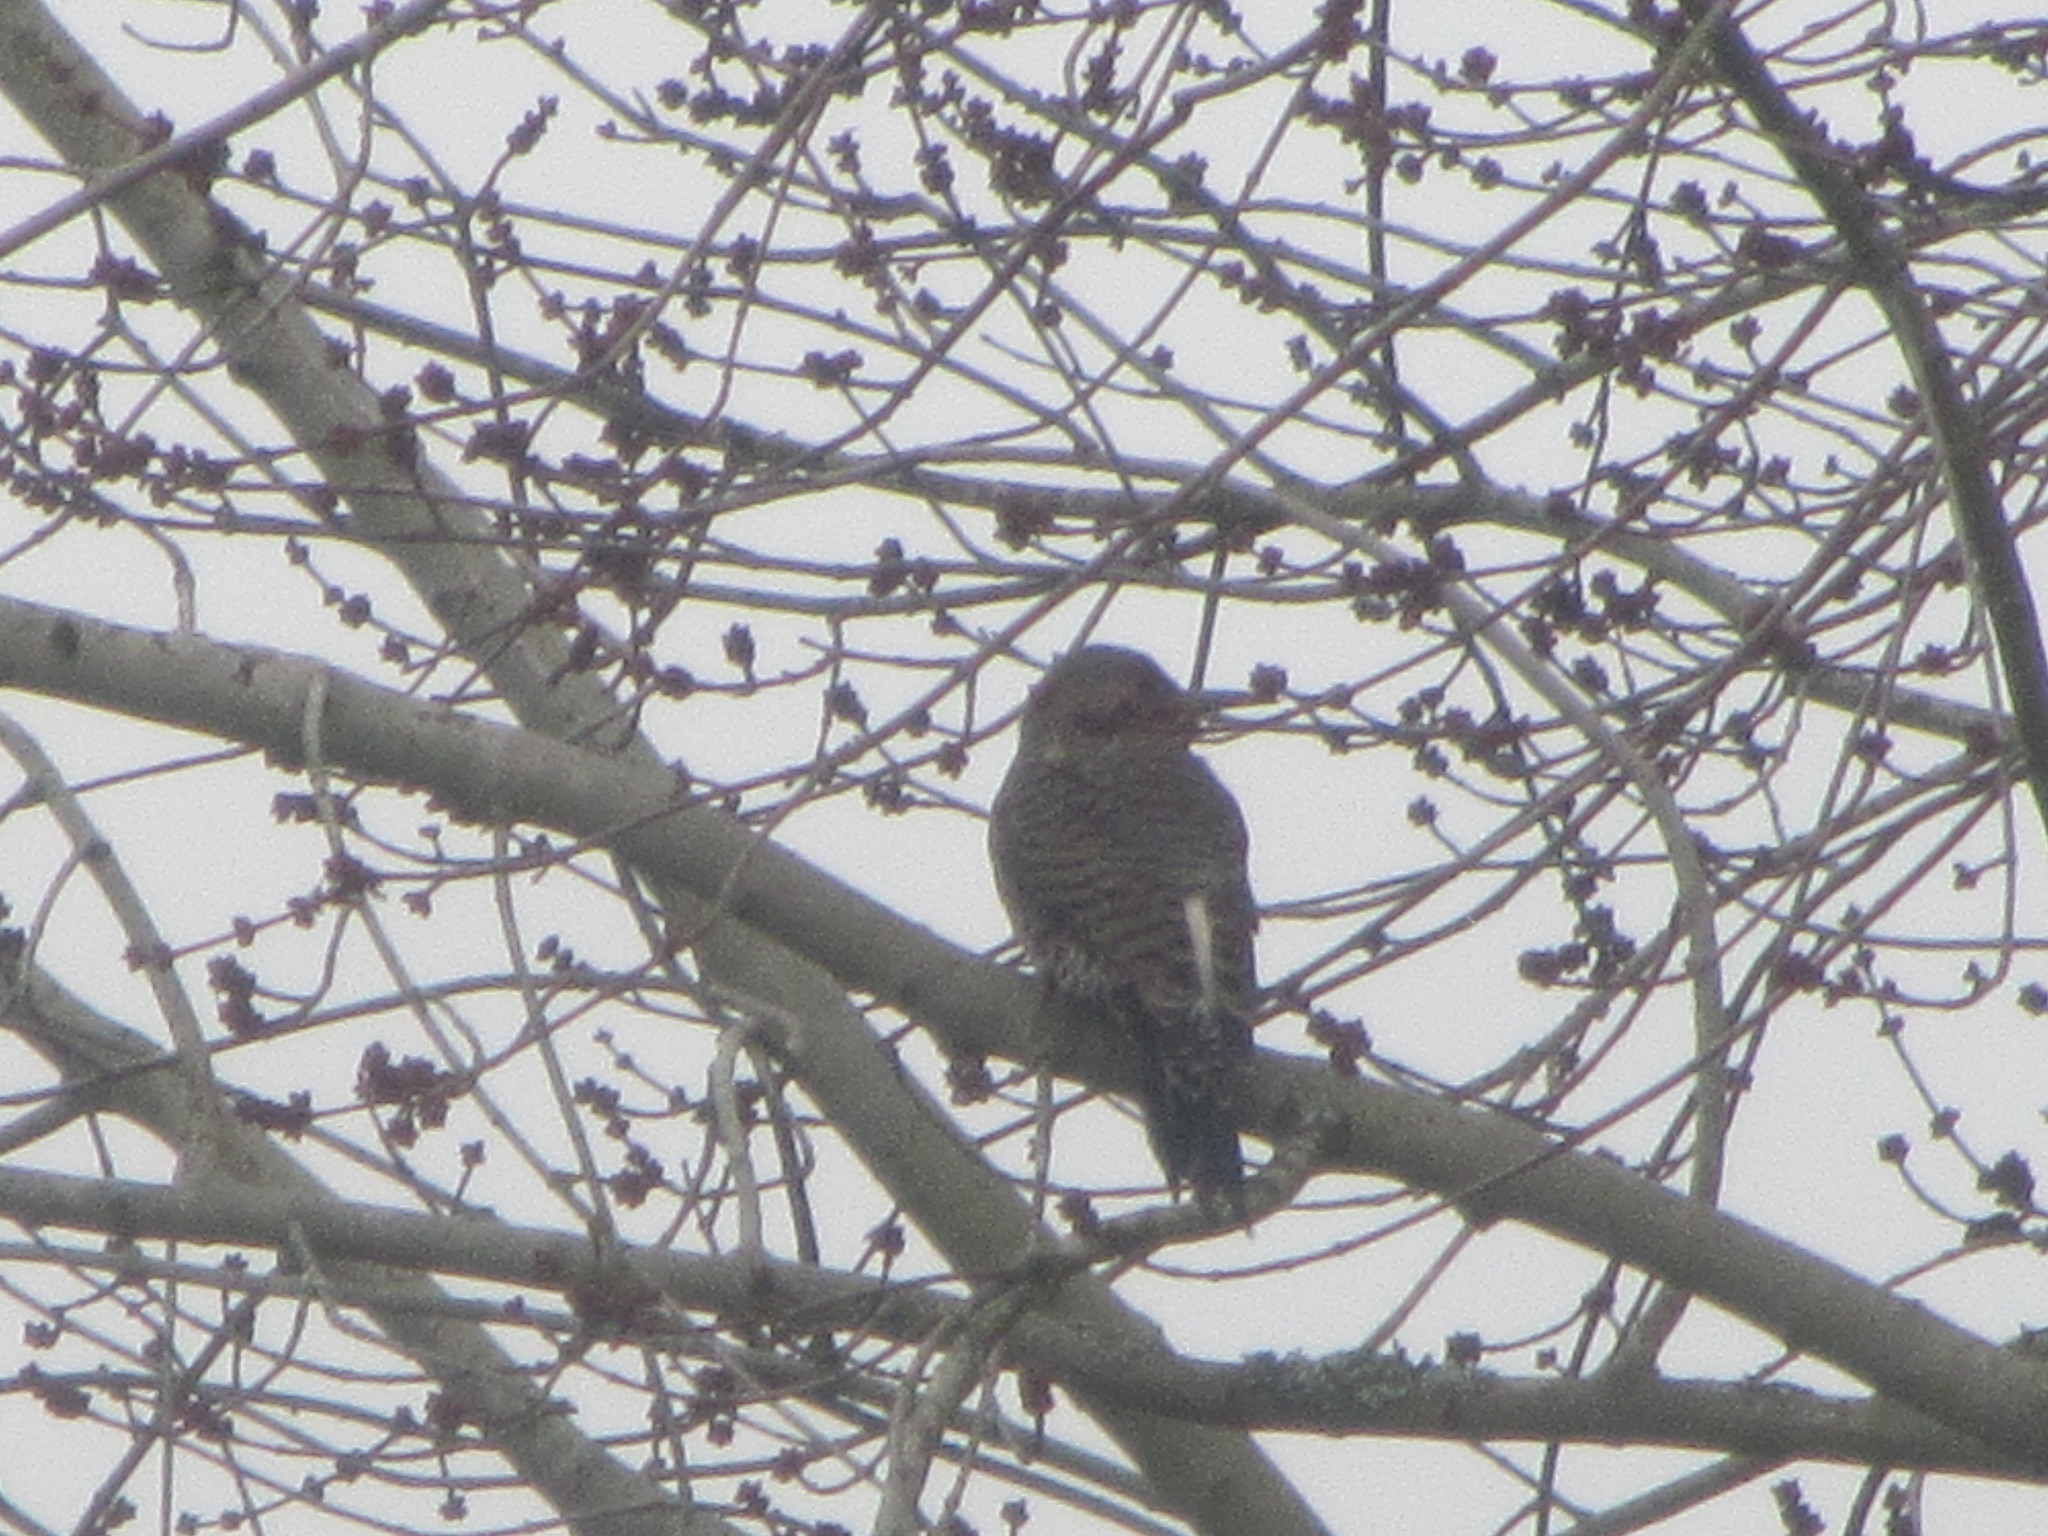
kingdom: Animalia
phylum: Chordata
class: Aves
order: Piciformes
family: Picidae
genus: Colaptes
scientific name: Colaptes auratus
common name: Northern flicker
